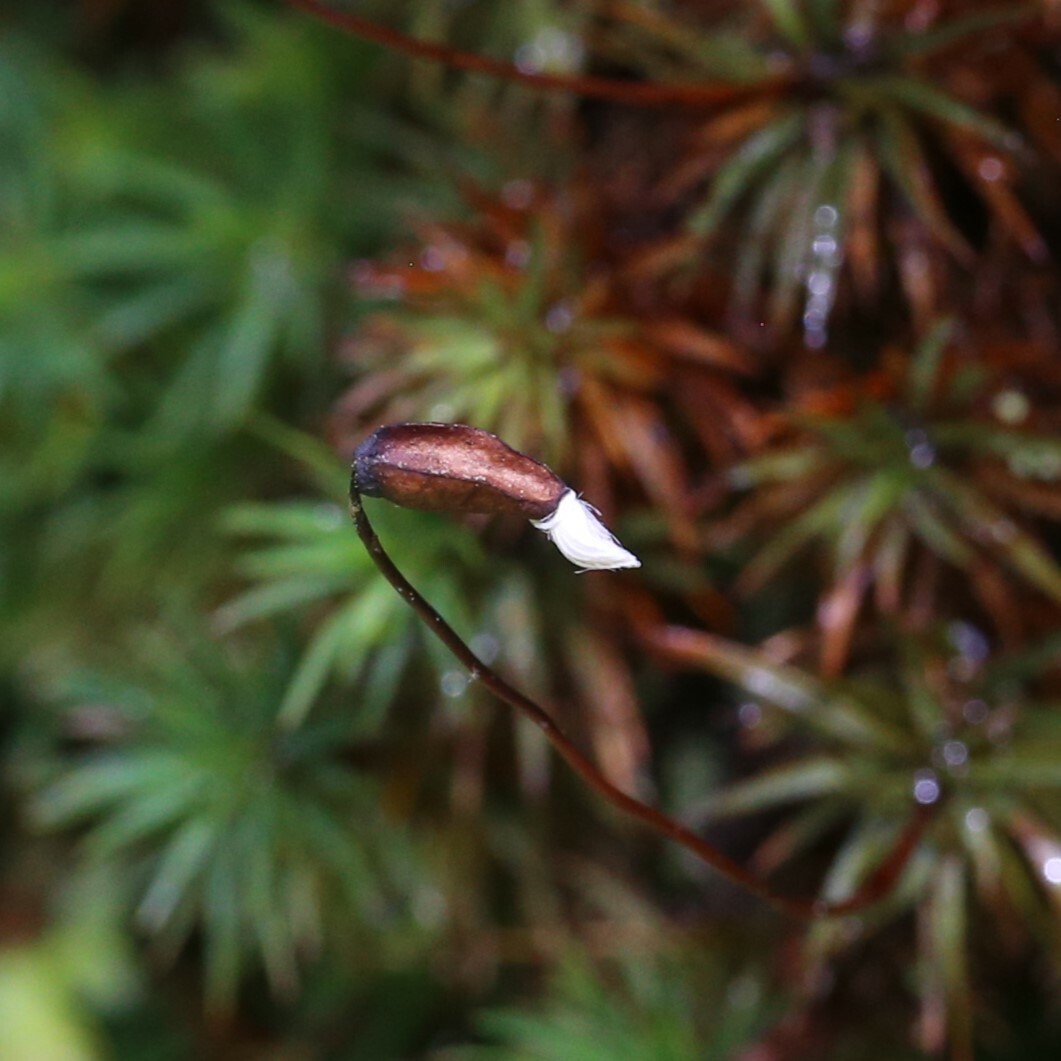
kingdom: Plantae
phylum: Bryophyta
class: Polytrichopsida
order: Polytrichales
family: Polytrichaceae
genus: Dawsonia
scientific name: Dawsonia polytrichoides
